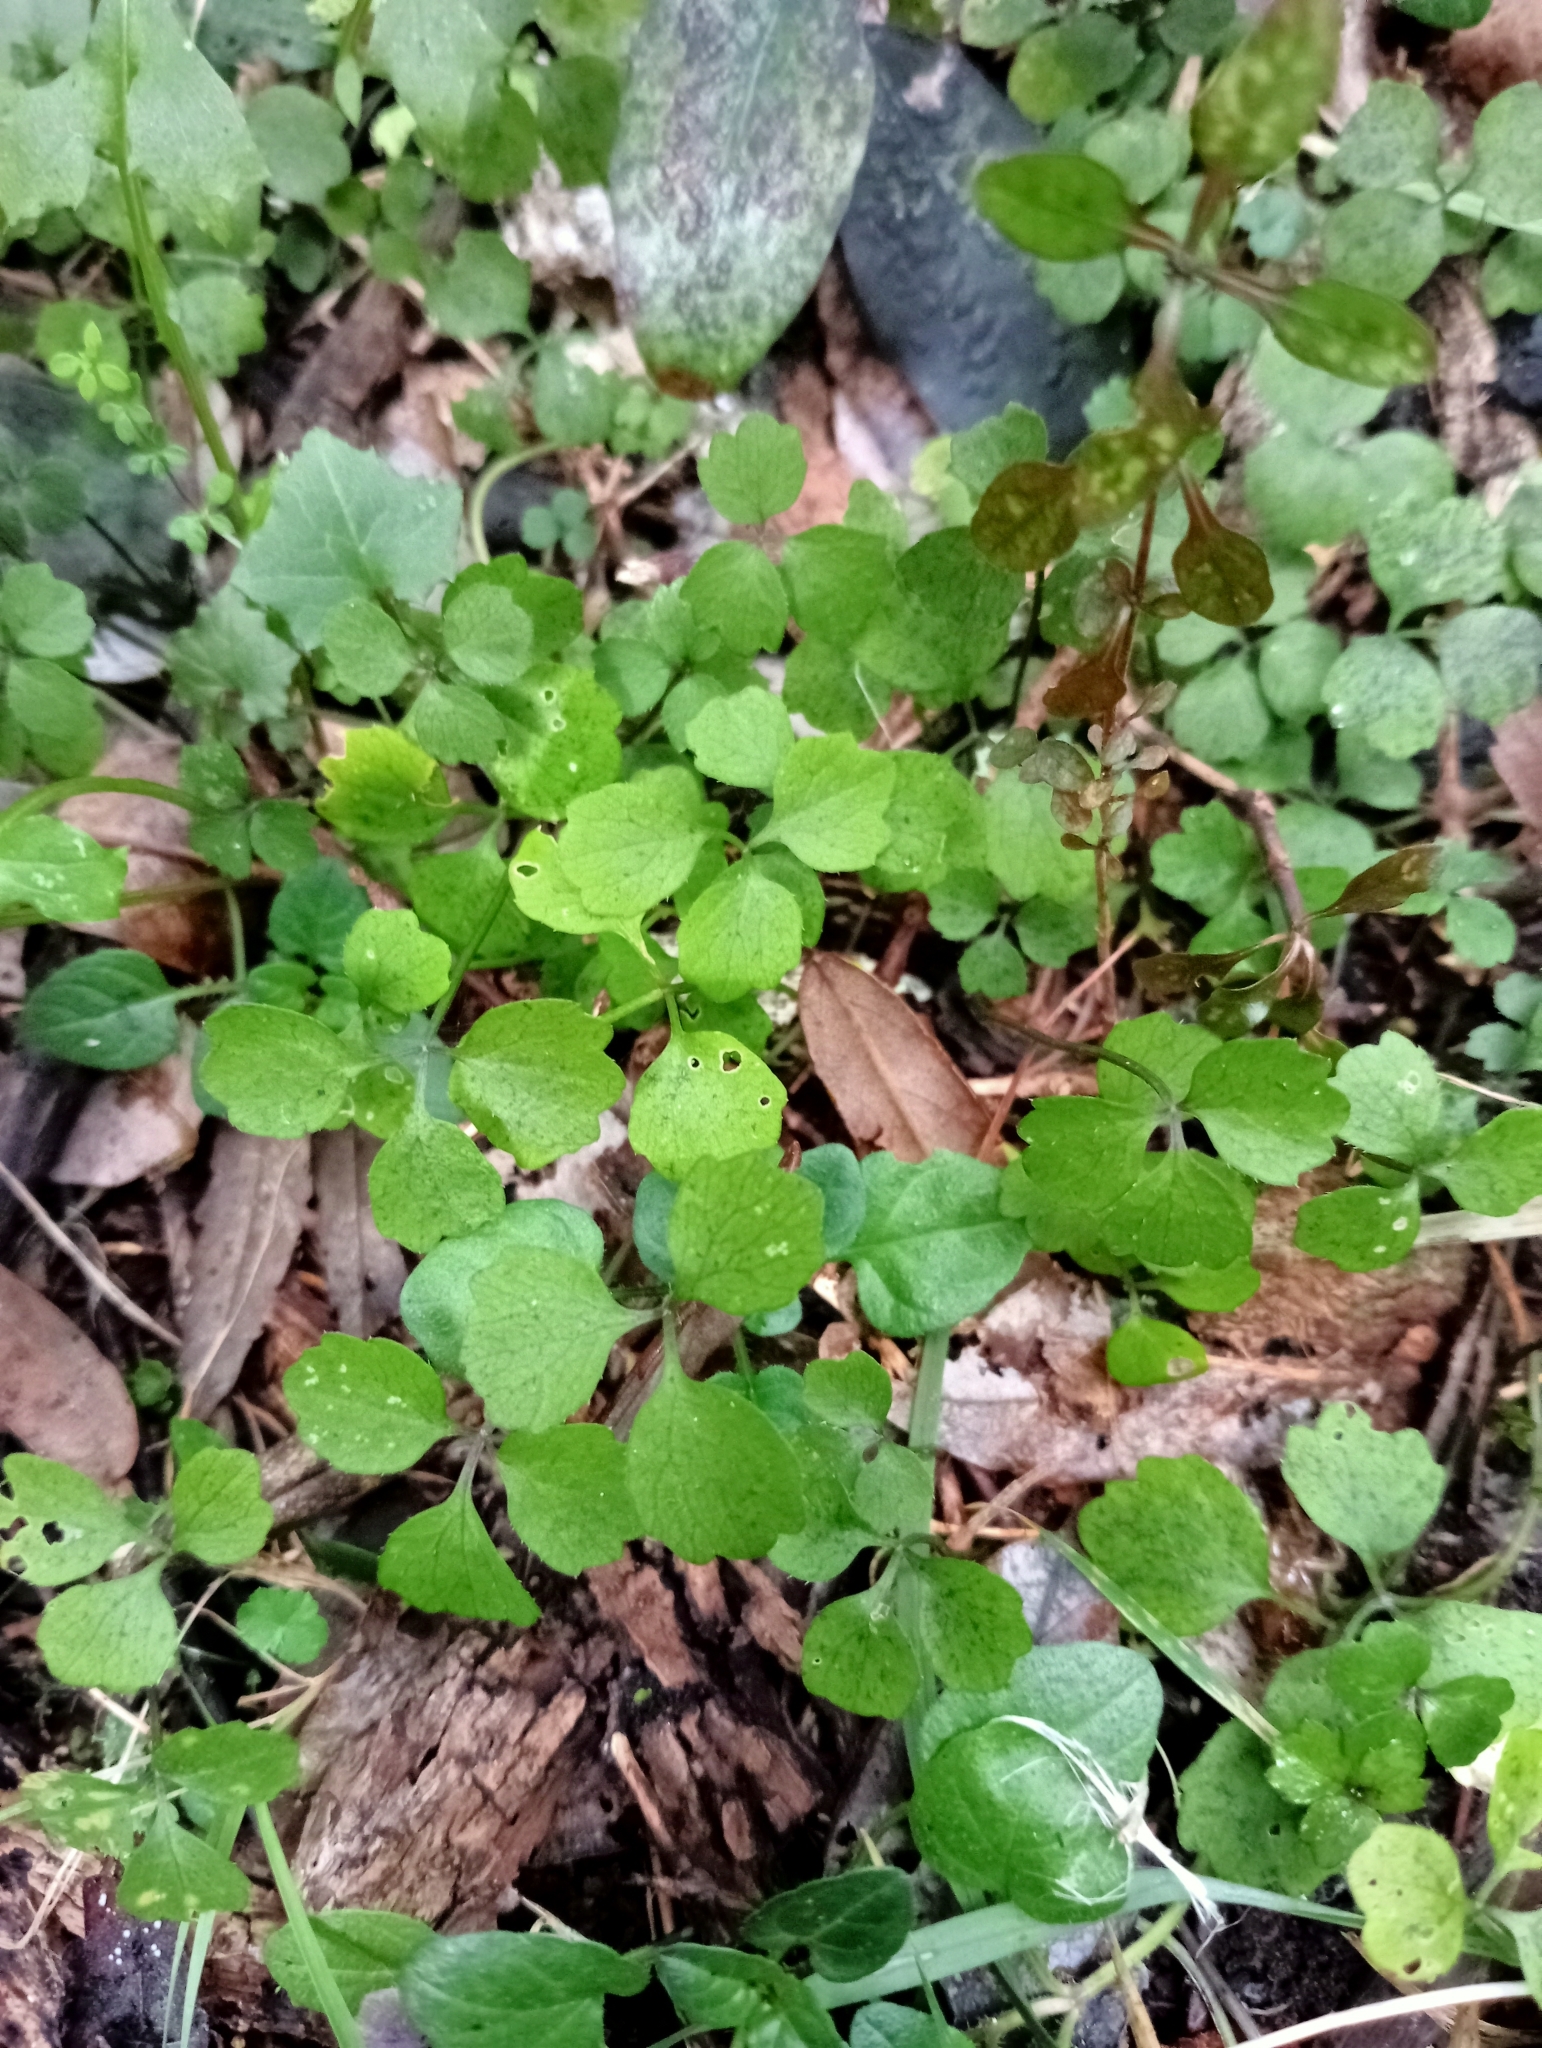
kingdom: Plantae
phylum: Tracheophyta
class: Magnoliopsida
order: Apiales
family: Apiaceae
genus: Azorella
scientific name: Azorella hookeri
